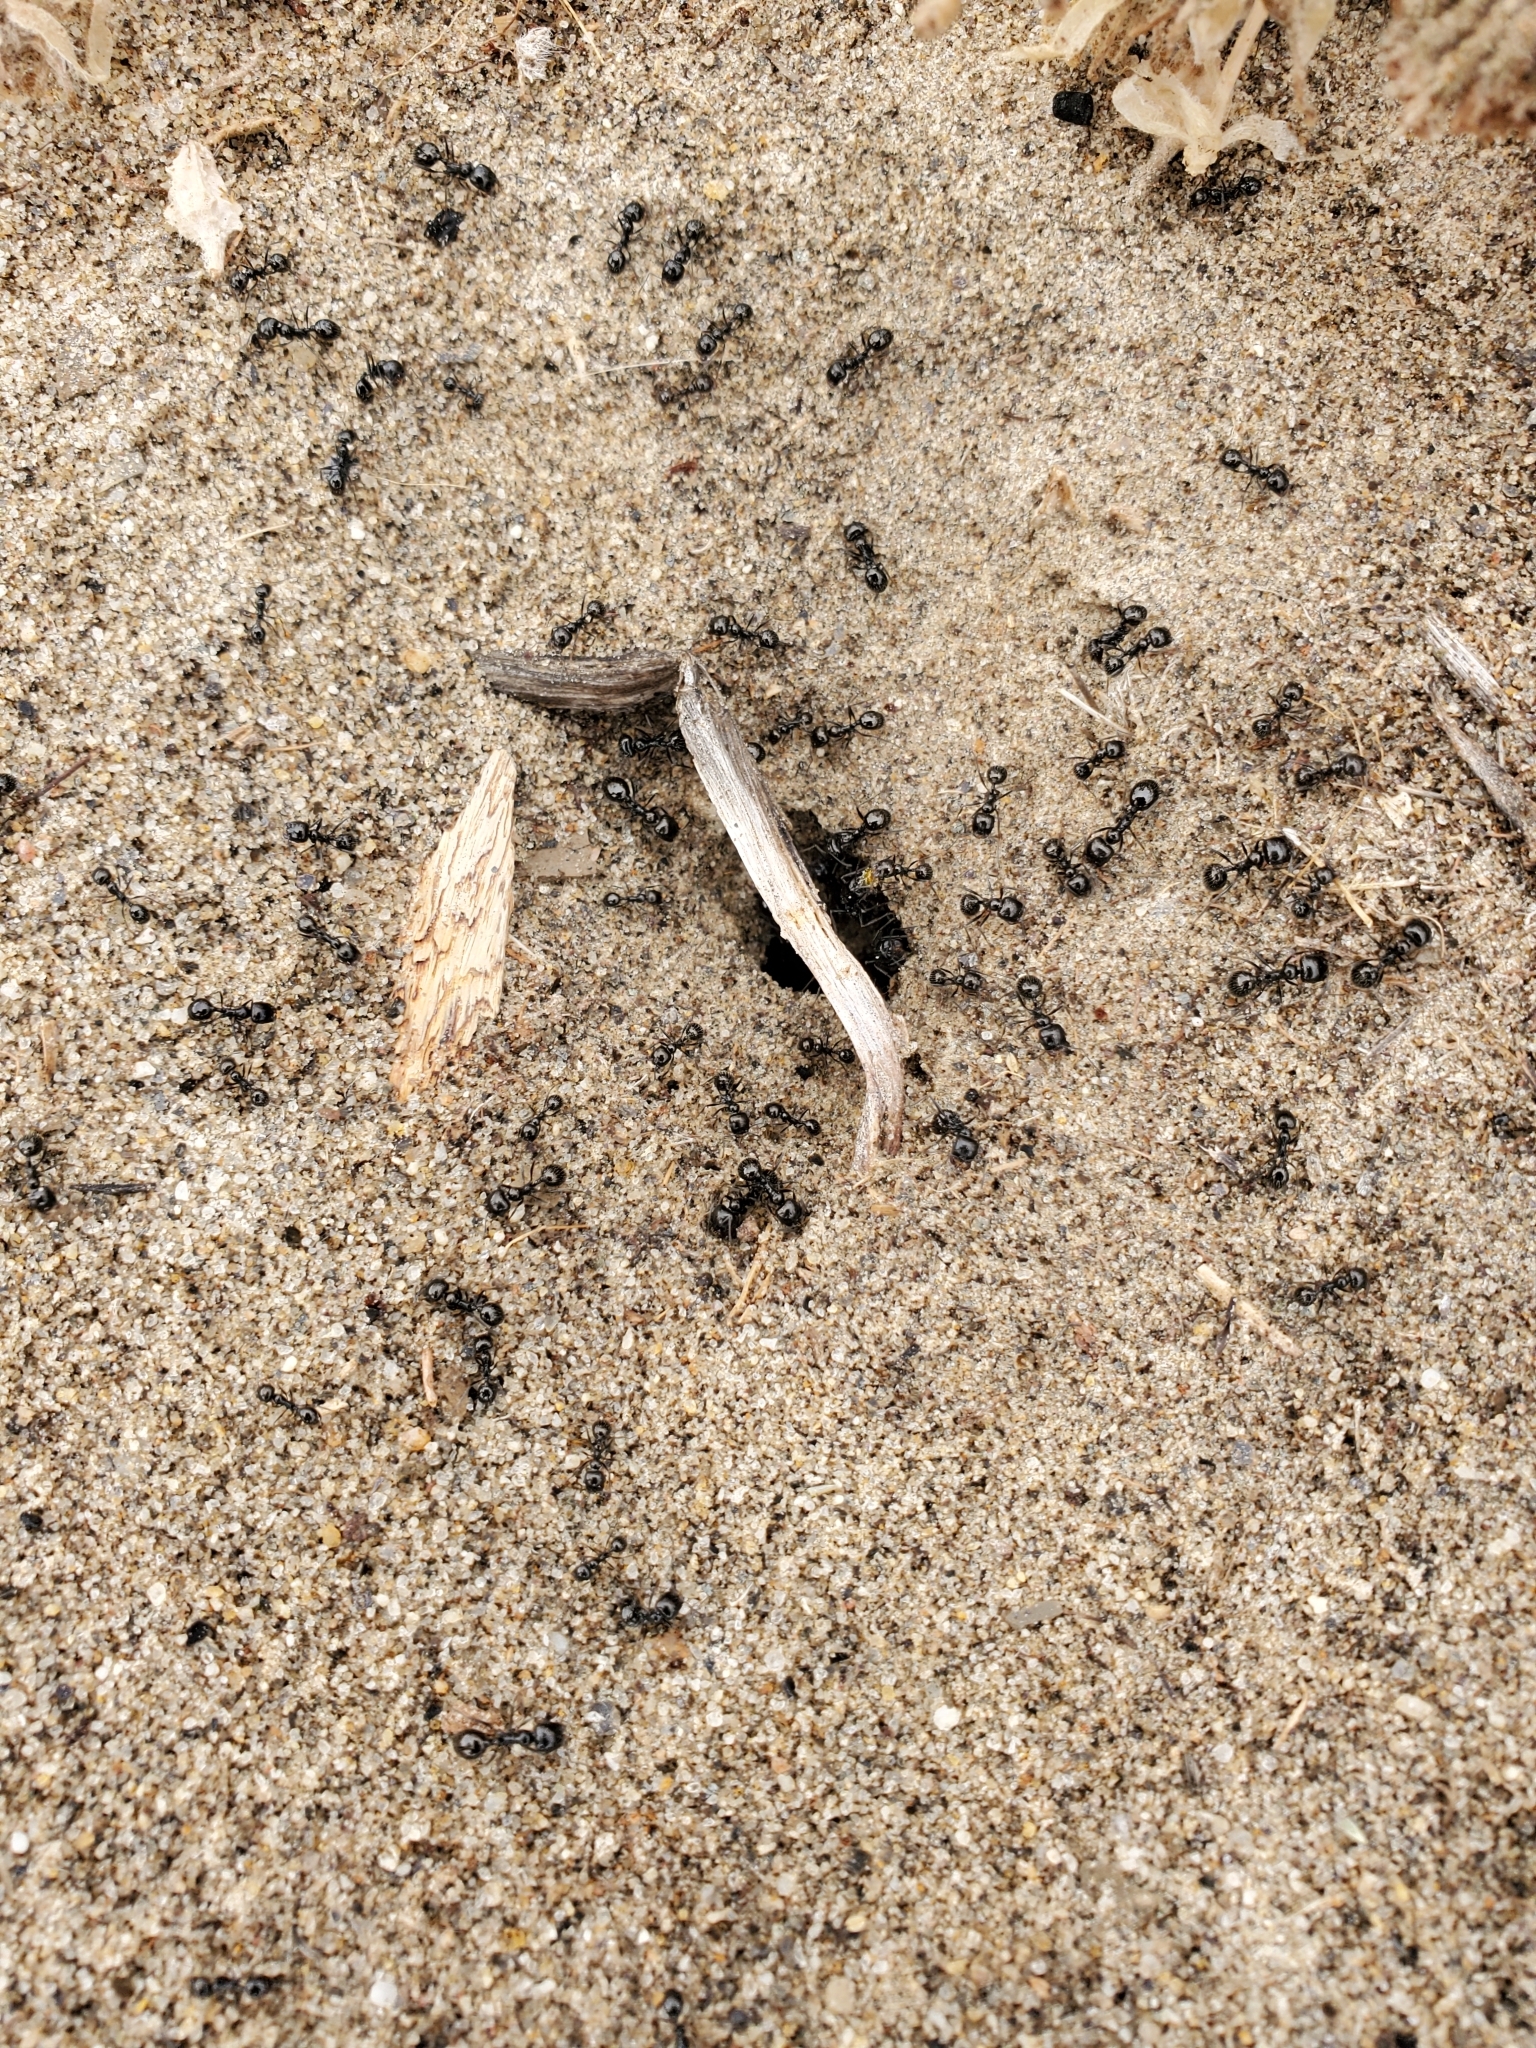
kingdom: Animalia
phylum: Arthropoda
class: Insecta
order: Hymenoptera
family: Formicidae
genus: Messor
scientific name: Messor pergandei
